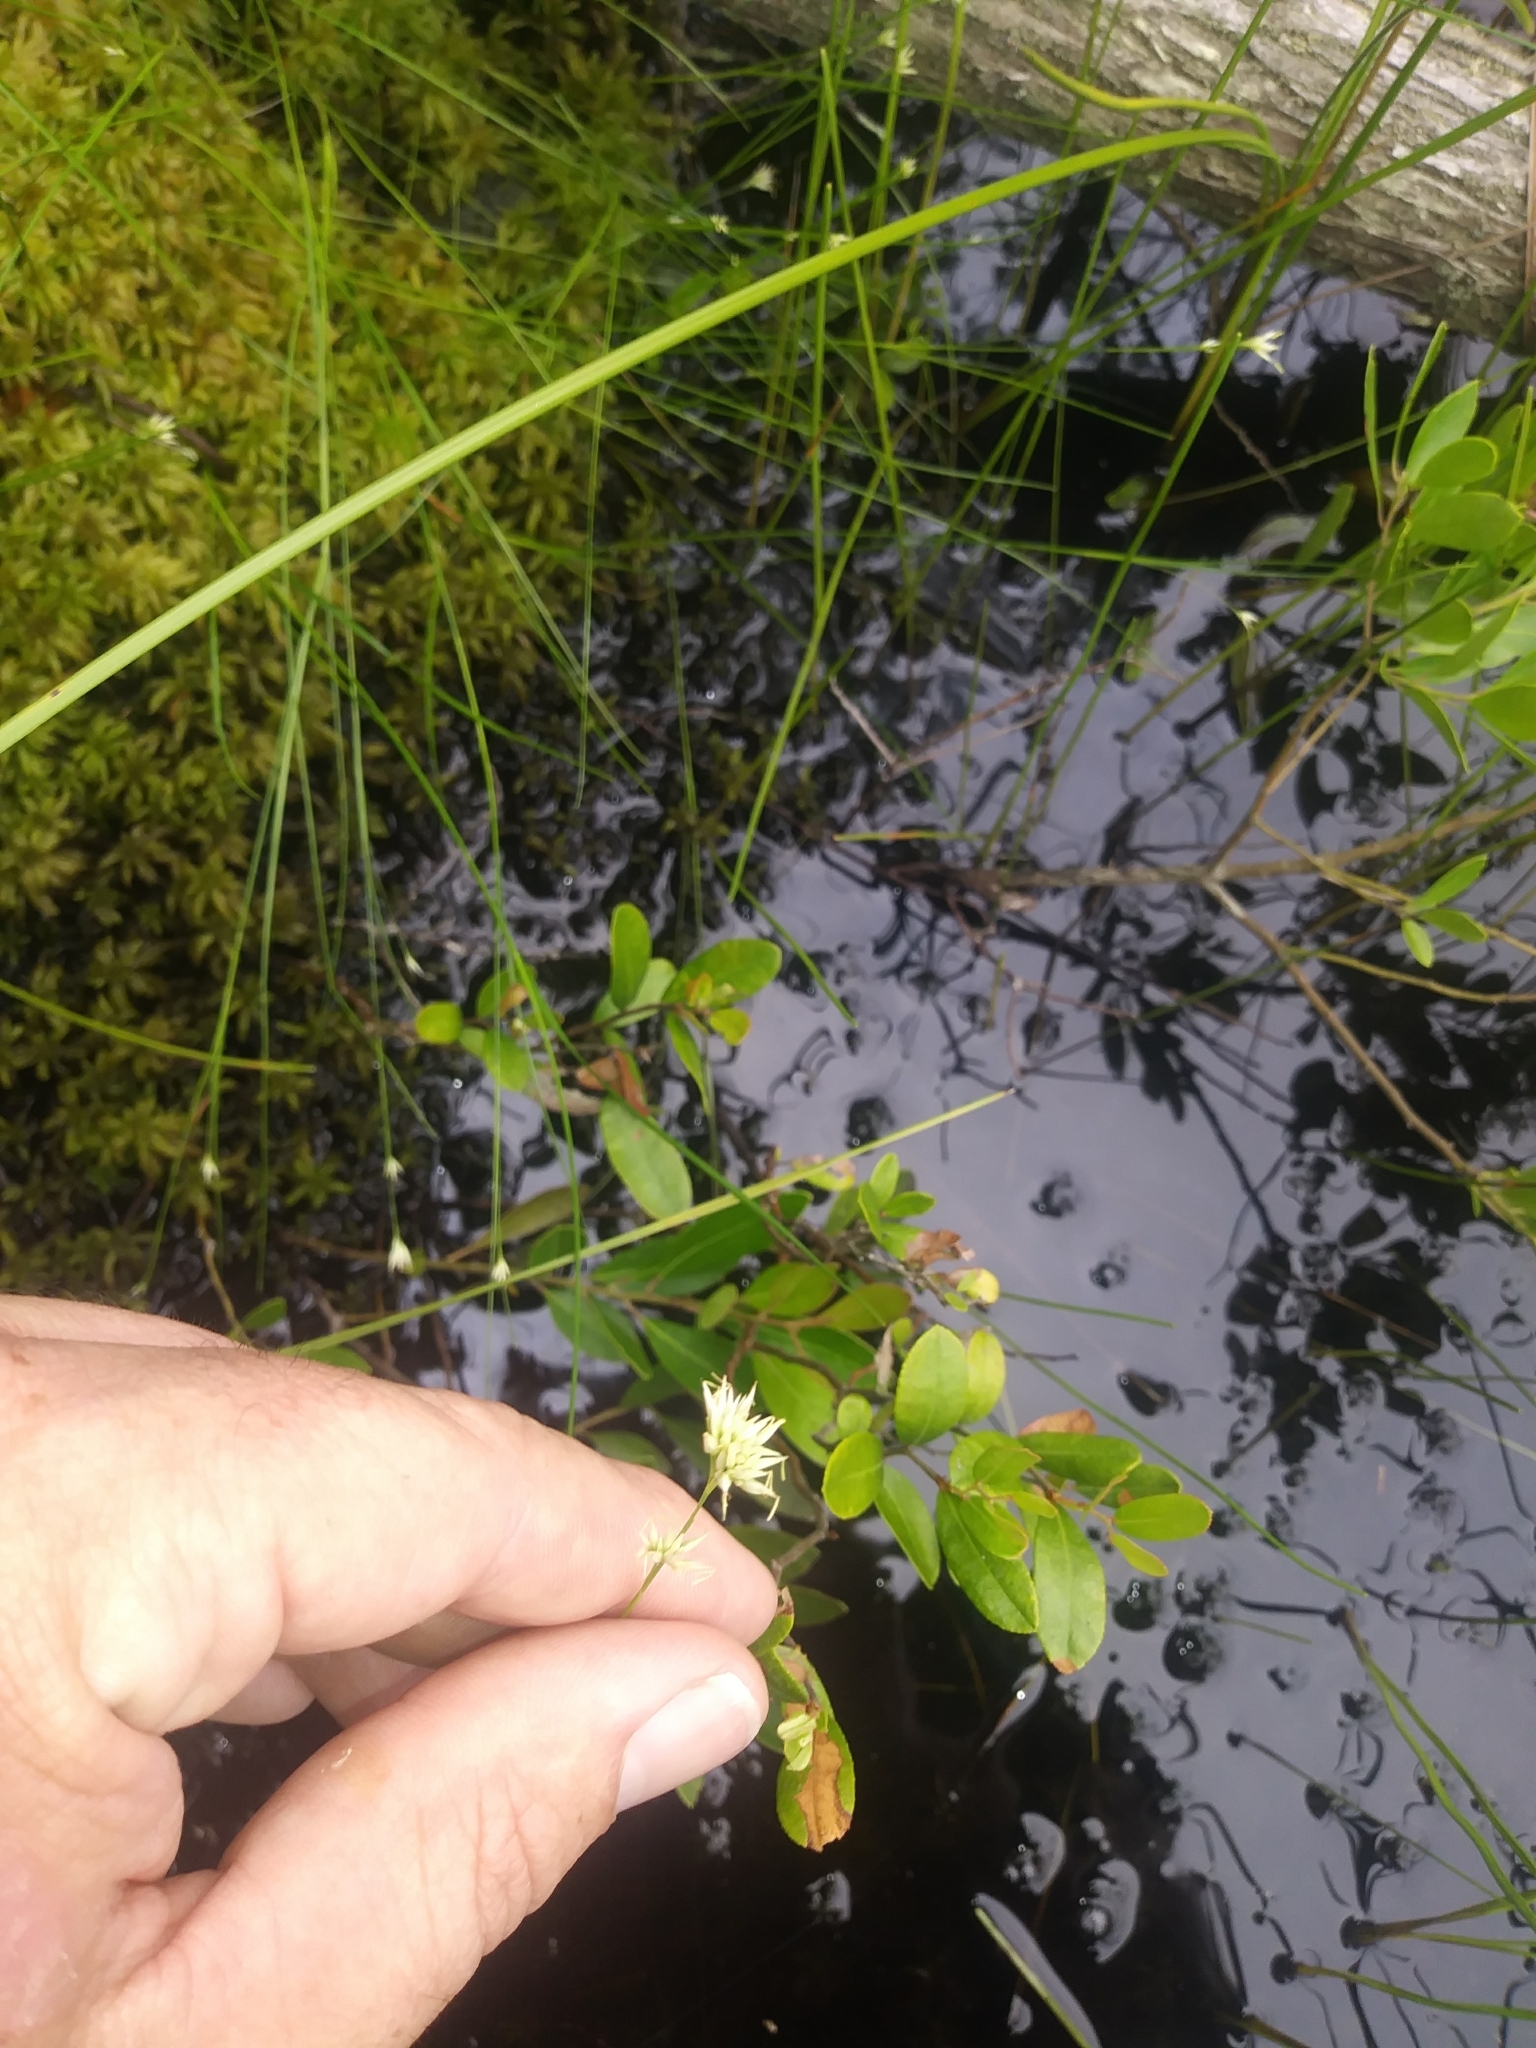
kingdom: Plantae
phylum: Tracheophyta
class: Liliopsida
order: Poales
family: Cyperaceae
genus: Rhynchospora
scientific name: Rhynchospora alba
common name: White beak-sedge
